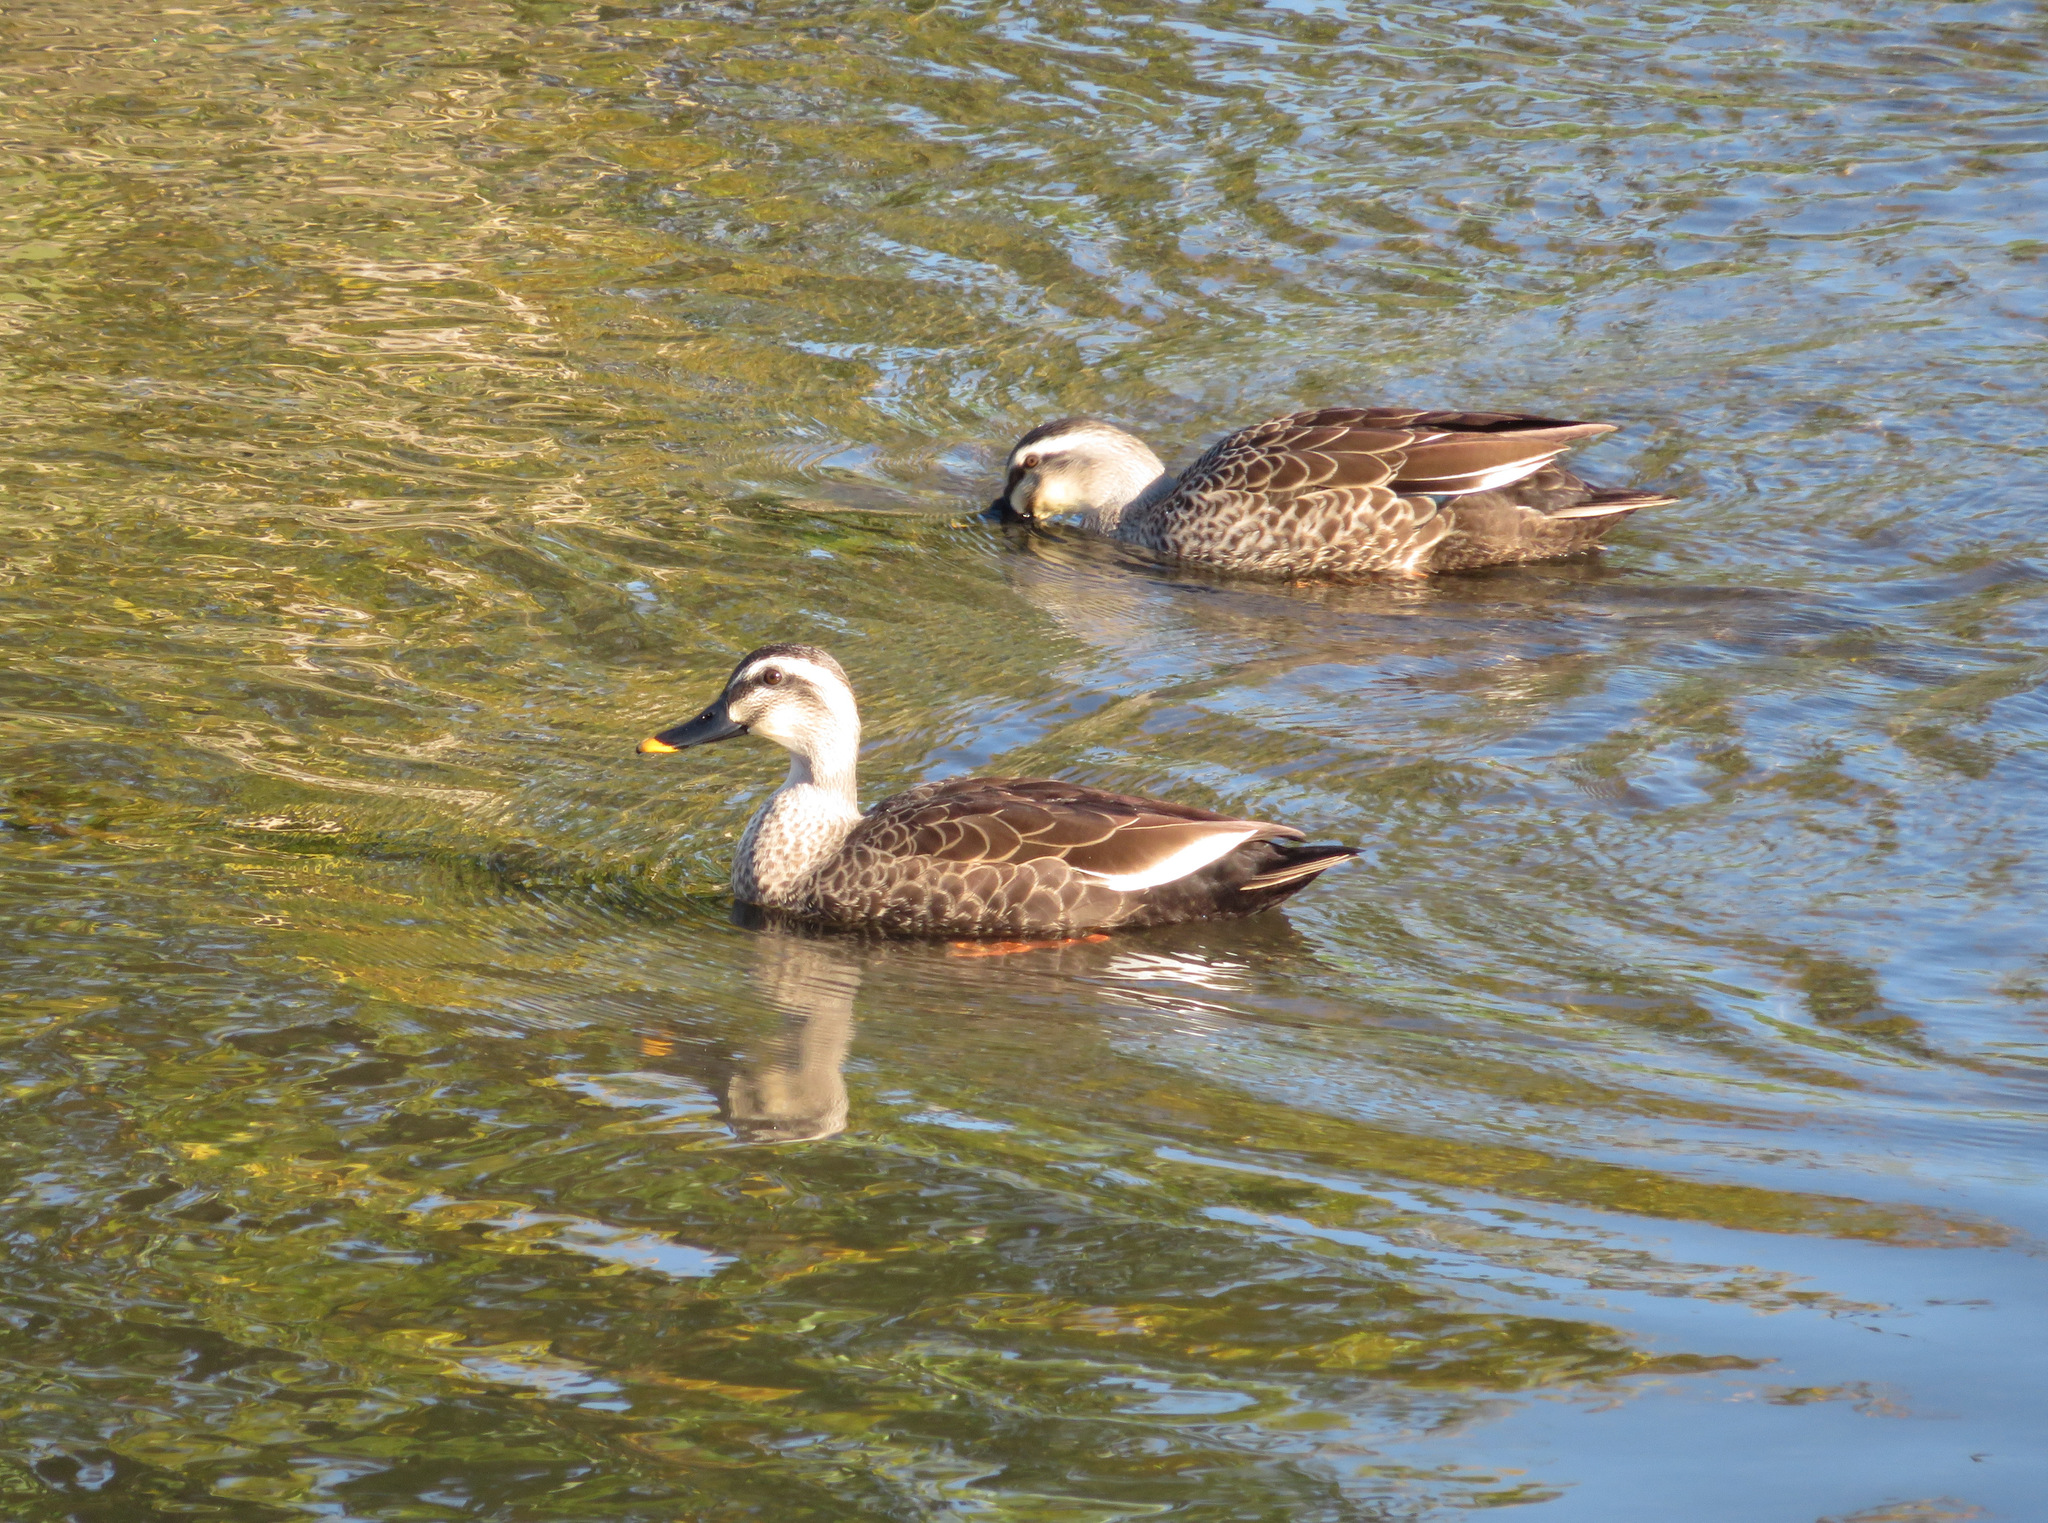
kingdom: Animalia
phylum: Chordata
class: Aves
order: Anseriformes
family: Anatidae
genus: Anas
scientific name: Anas zonorhyncha
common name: Eastern spot-billed duck
